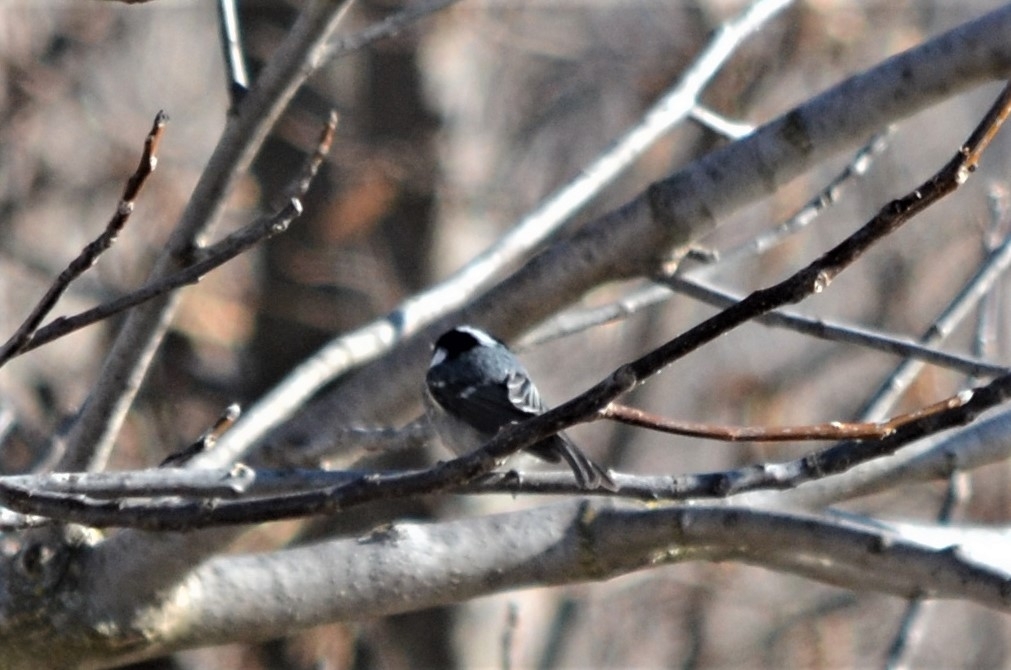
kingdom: Animalia
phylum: Chordata
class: Aves
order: Passeriformes
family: Paridae
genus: Periparus
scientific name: Periparus ater
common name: Coal tit
